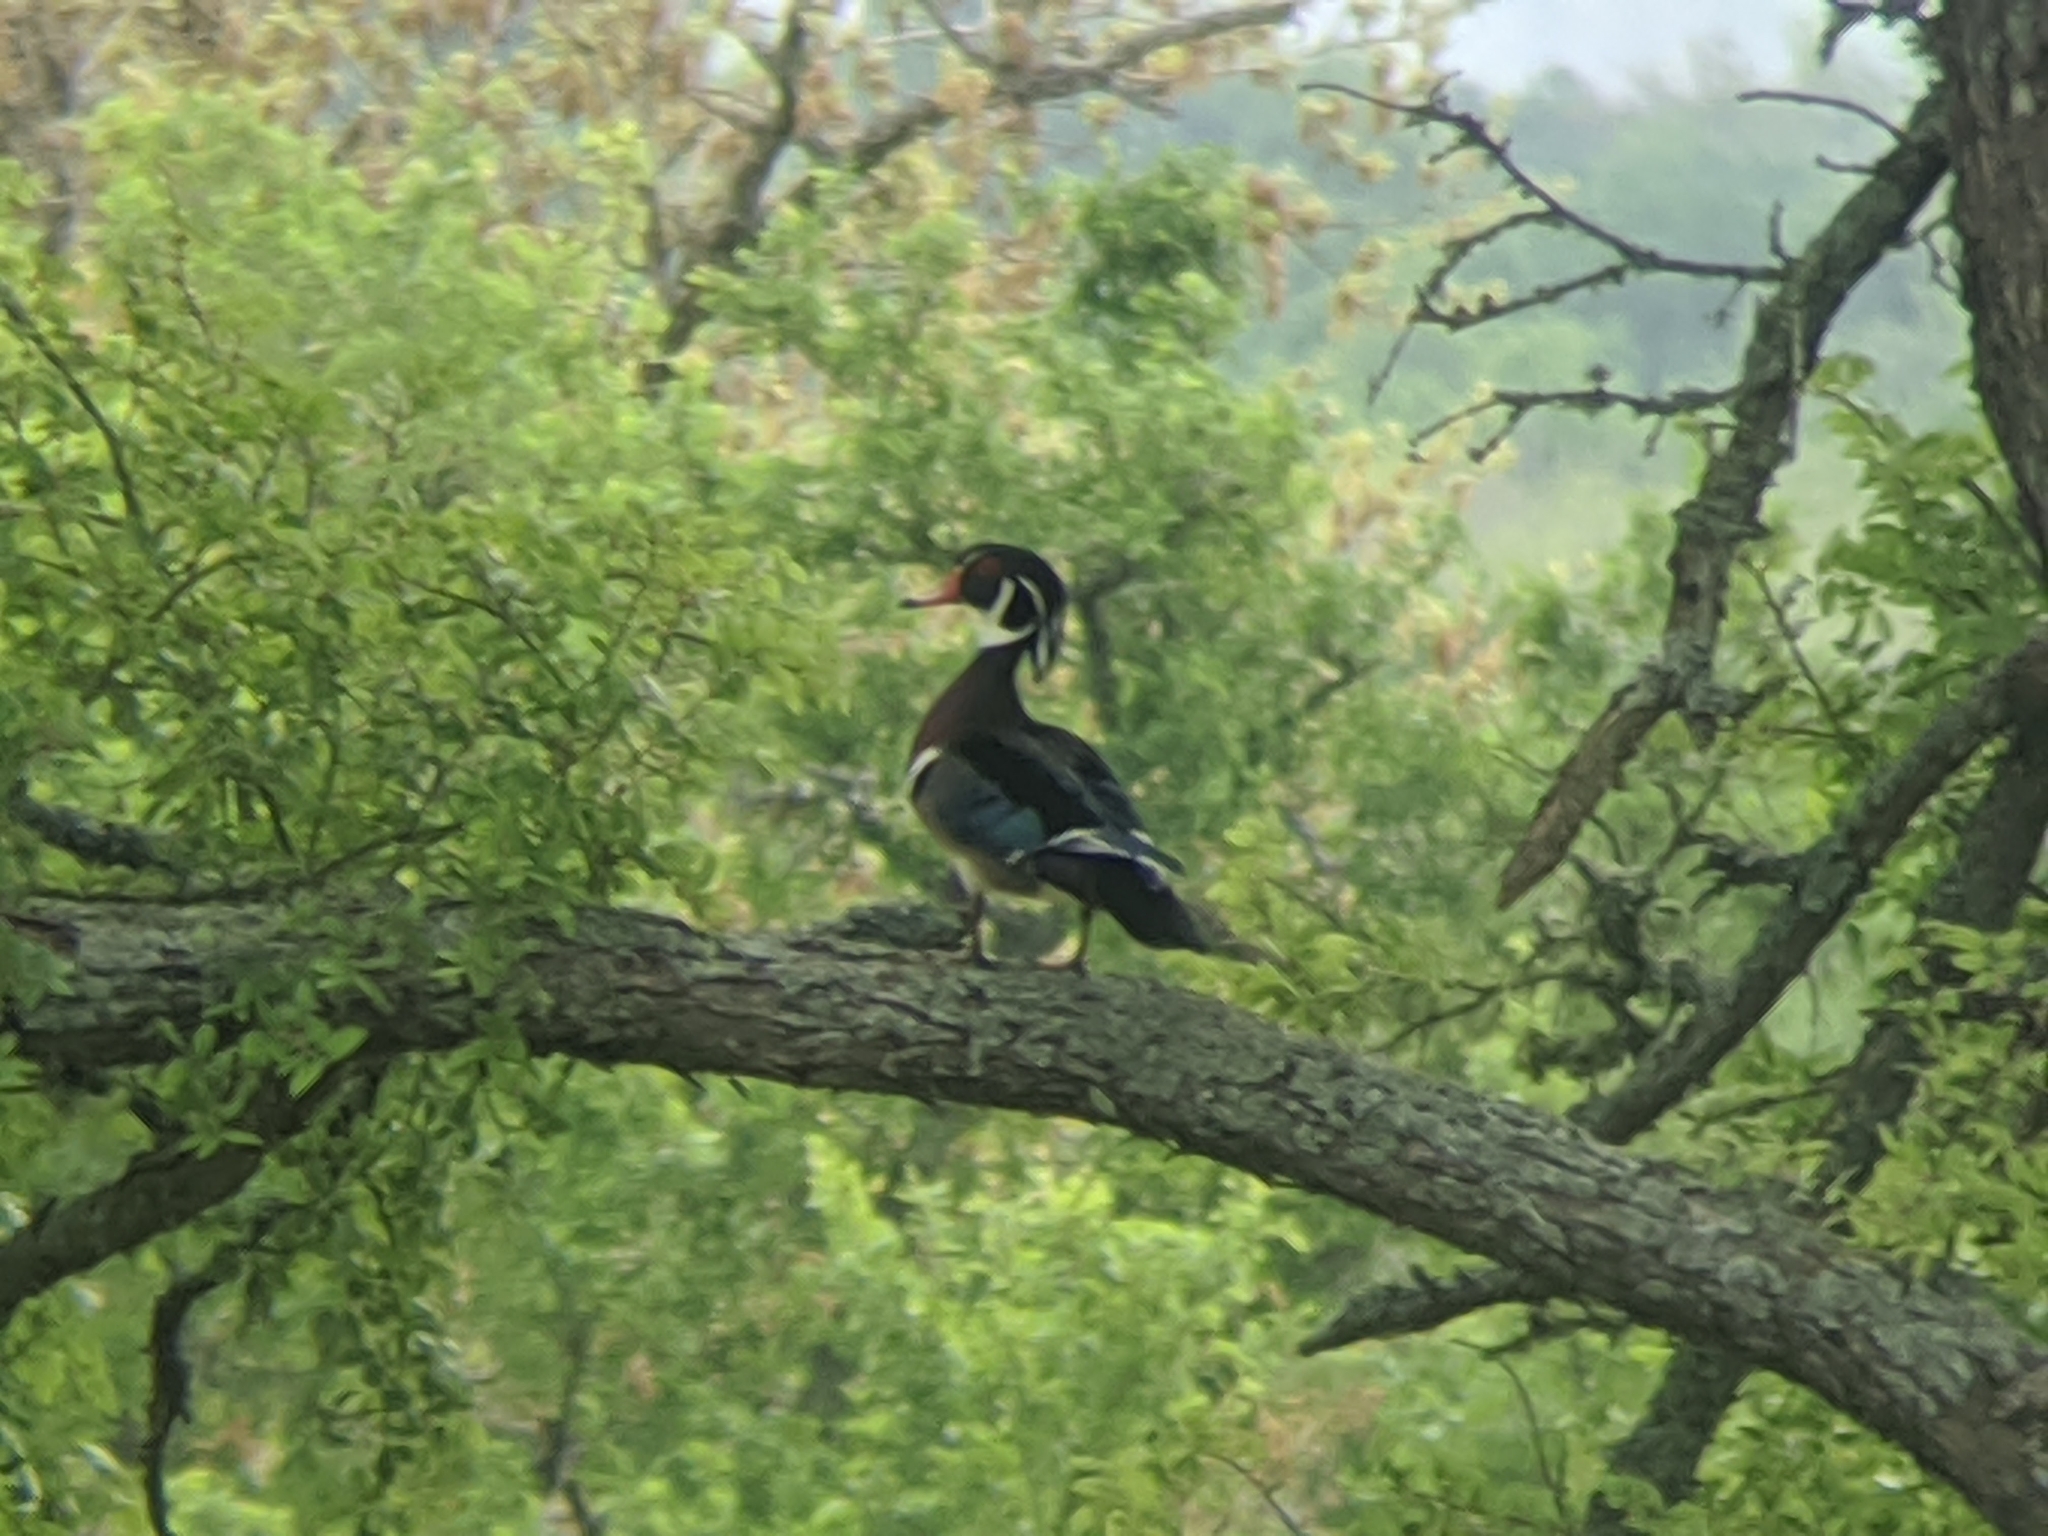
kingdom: Animalia
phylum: Chordata
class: Aves
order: Anseriformes
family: Anatidae
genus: Aix
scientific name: Aix sponsa
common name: Wood duck
